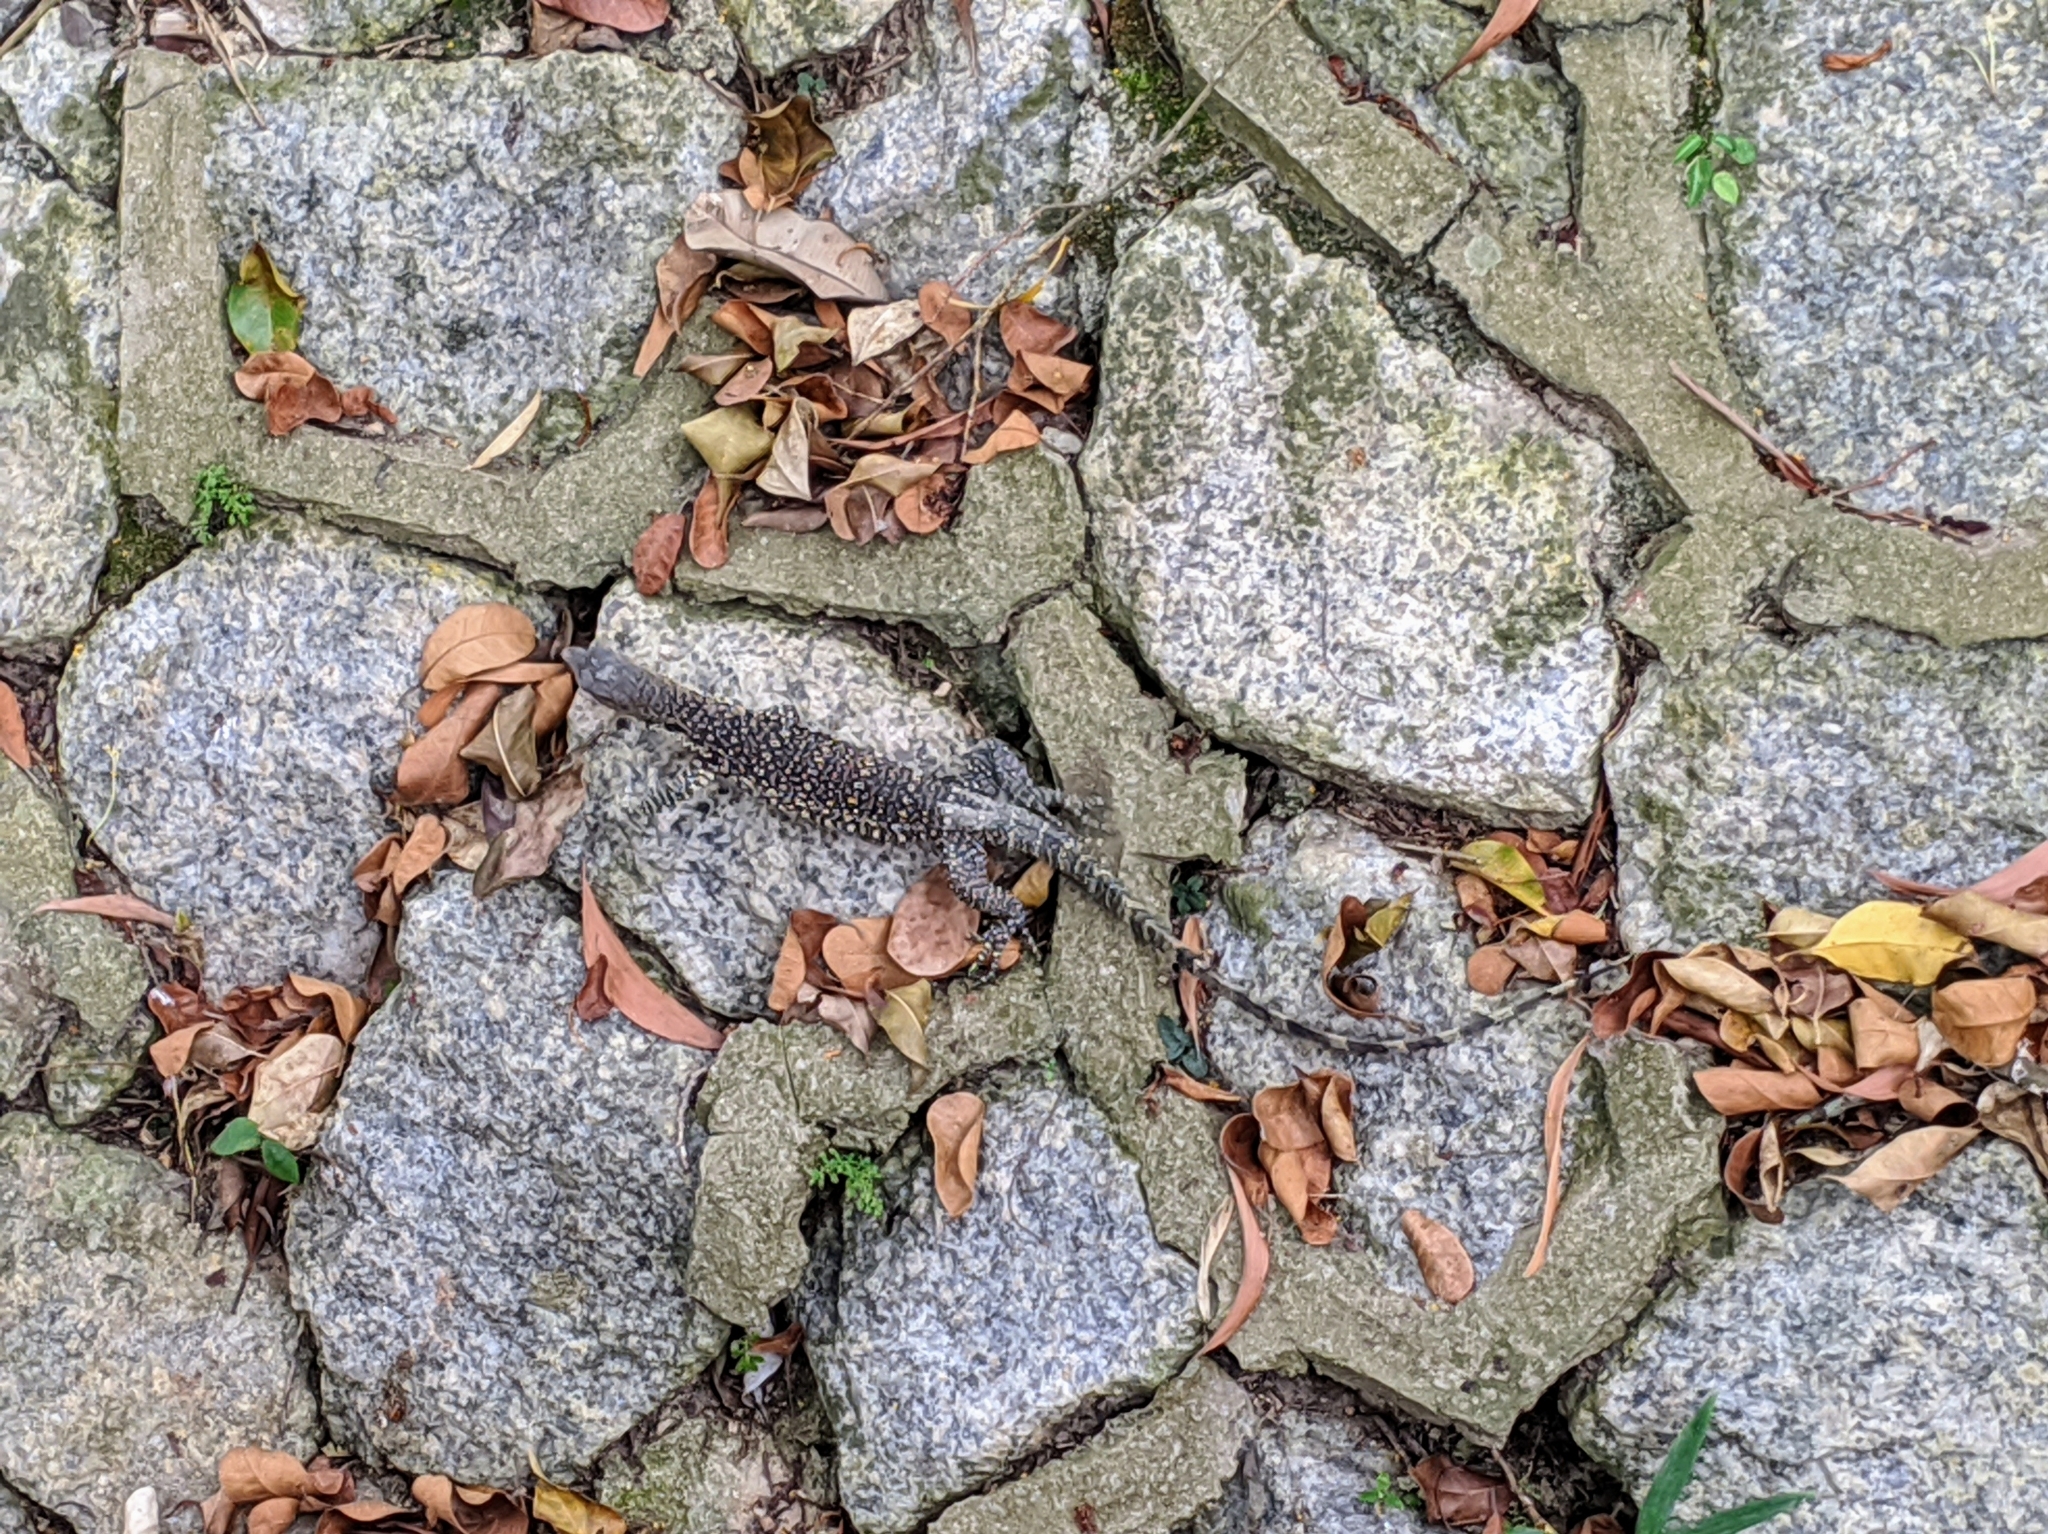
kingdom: Animalia
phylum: Chordata
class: Squamata
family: Varanidae
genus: Varanus
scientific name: Varanus salvator
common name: Common water monitor
